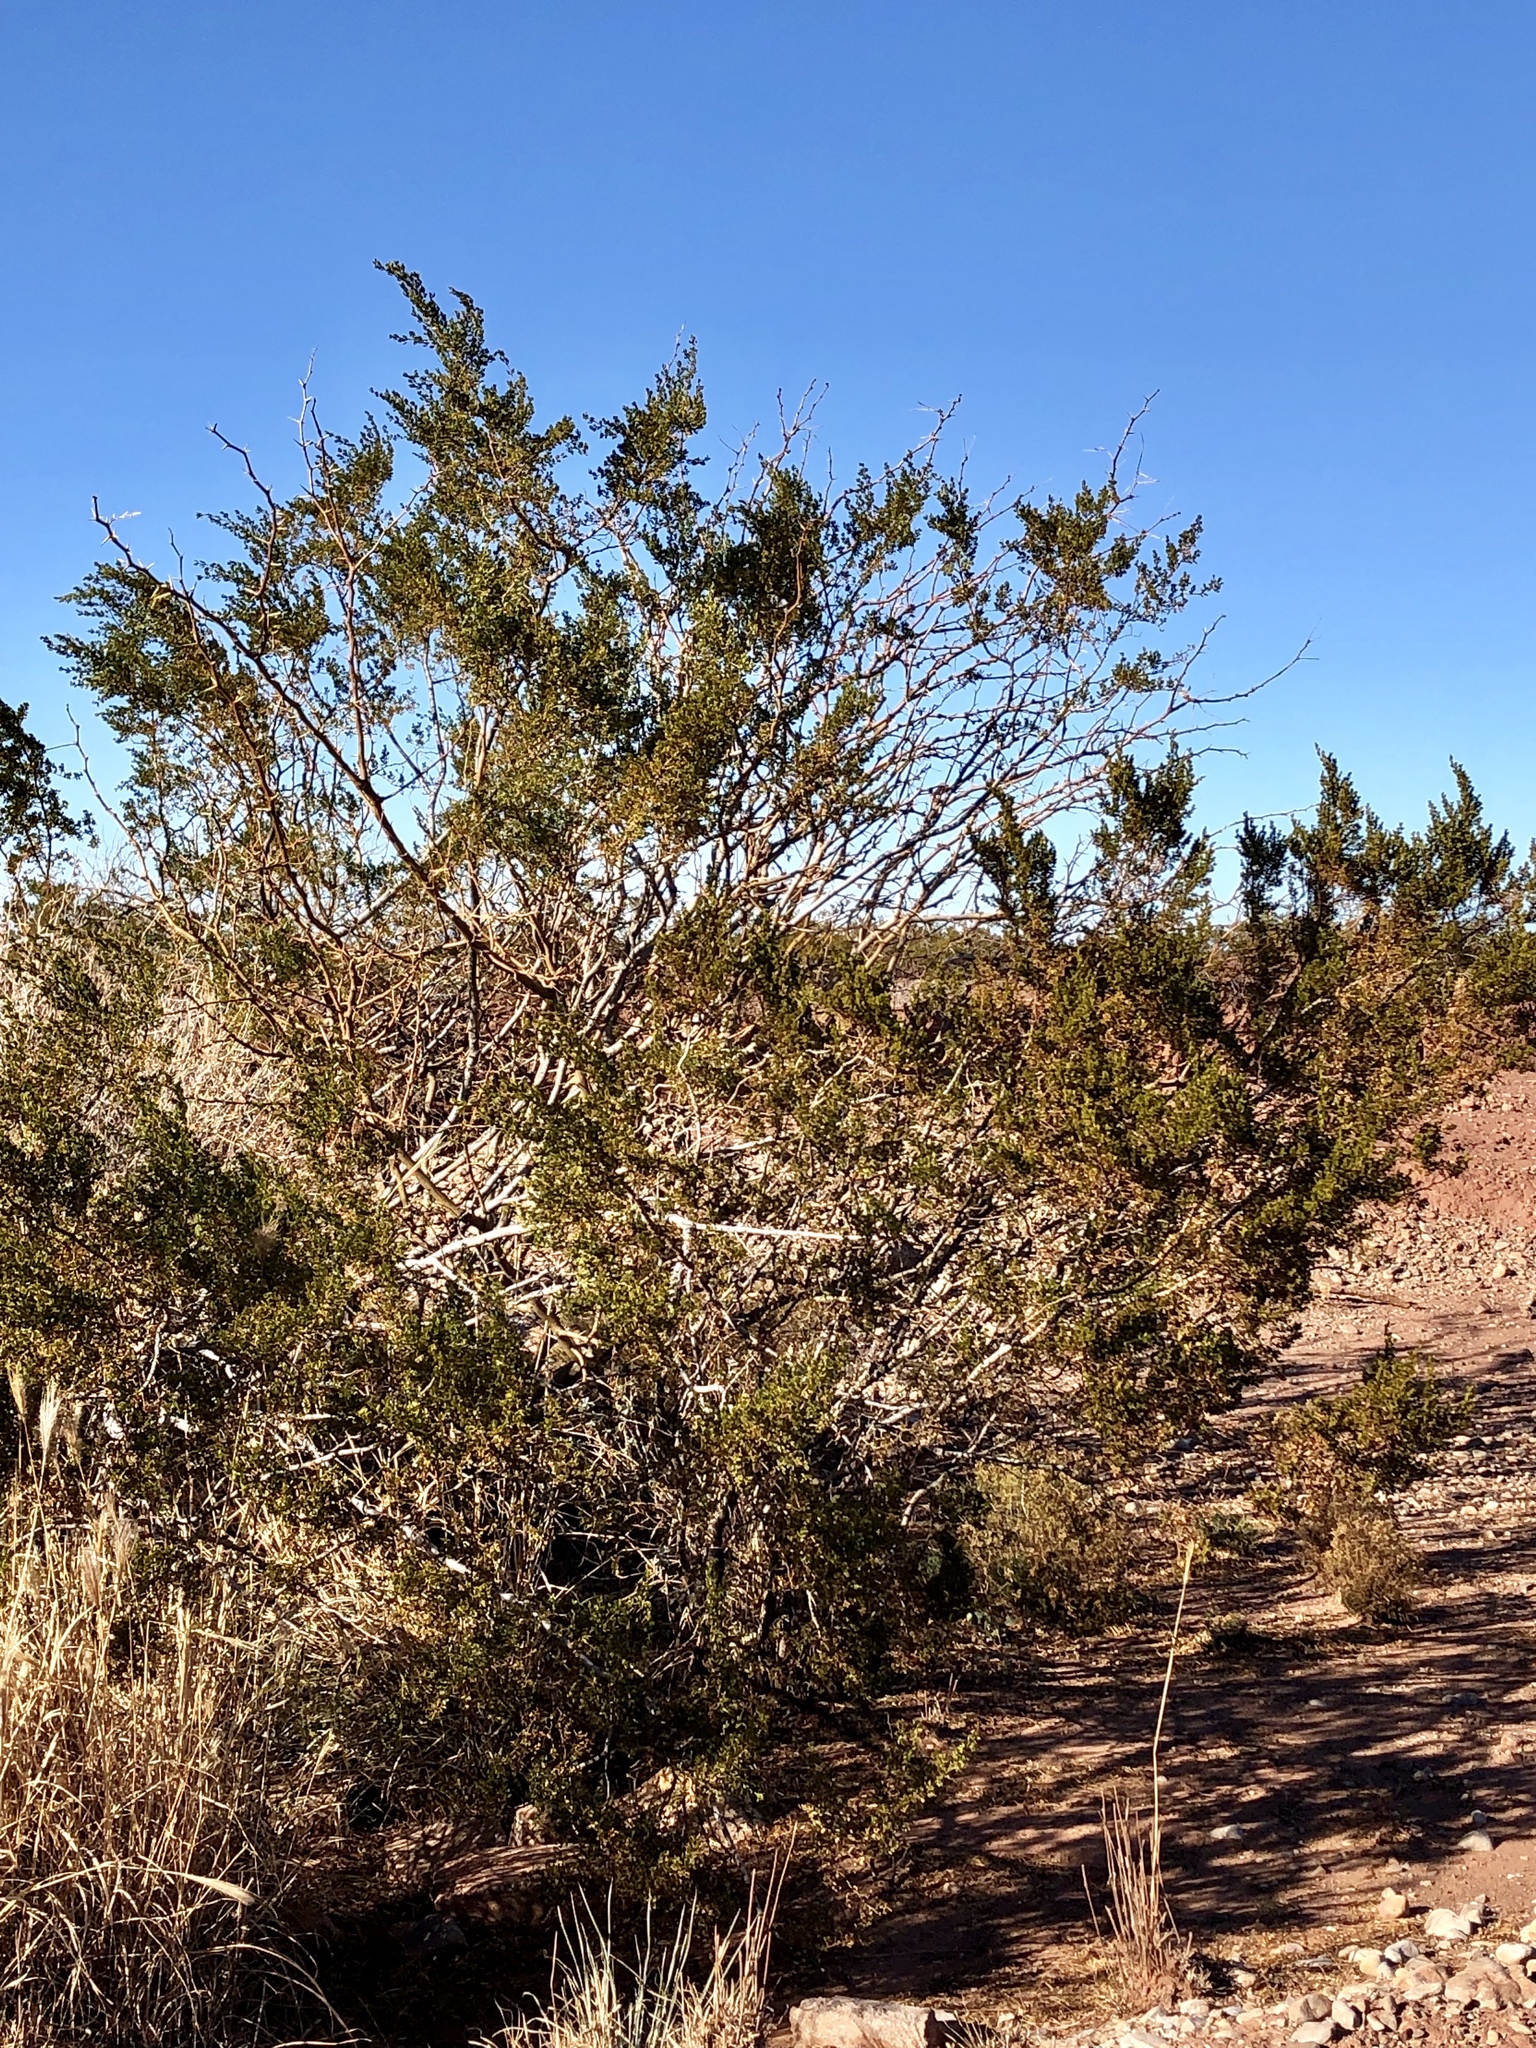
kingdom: Plantae
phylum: Tracheophyta
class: Magnoliopsida
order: Zygophyllales
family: Zygophyllaceae
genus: Larrea
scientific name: Larrea tridentata
